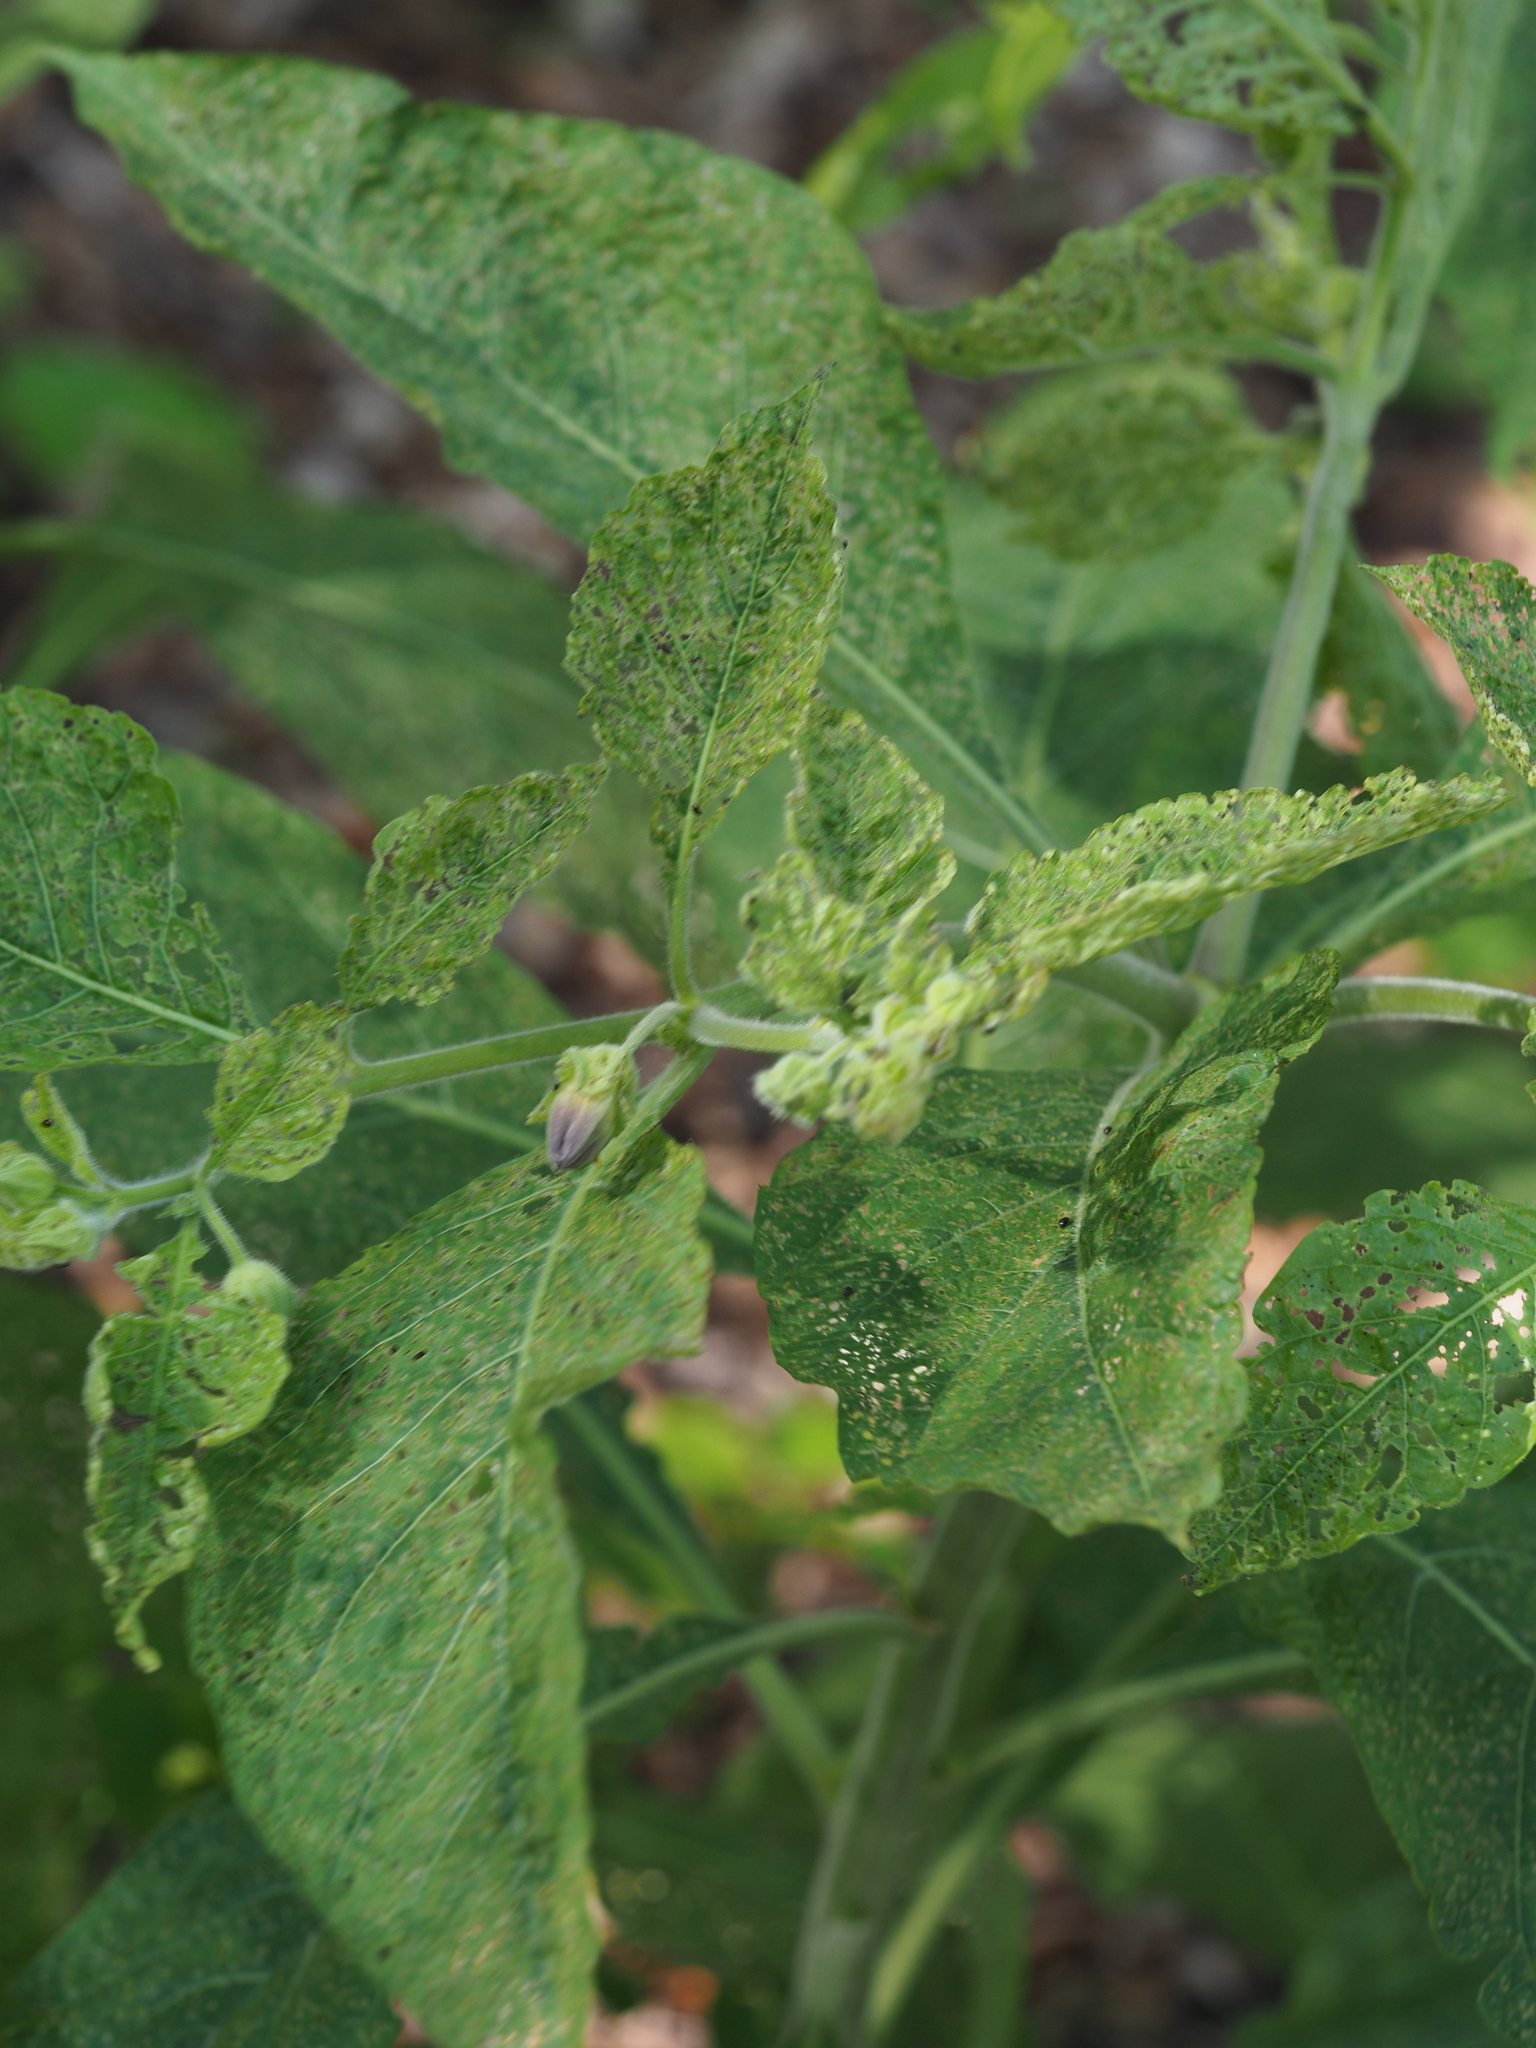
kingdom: Plantae
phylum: Tracheophyta
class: Magnoliopsida
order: Solanales
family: Solanaceae
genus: Atropa
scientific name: Atropa belladonna
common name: Deadly nightshade
